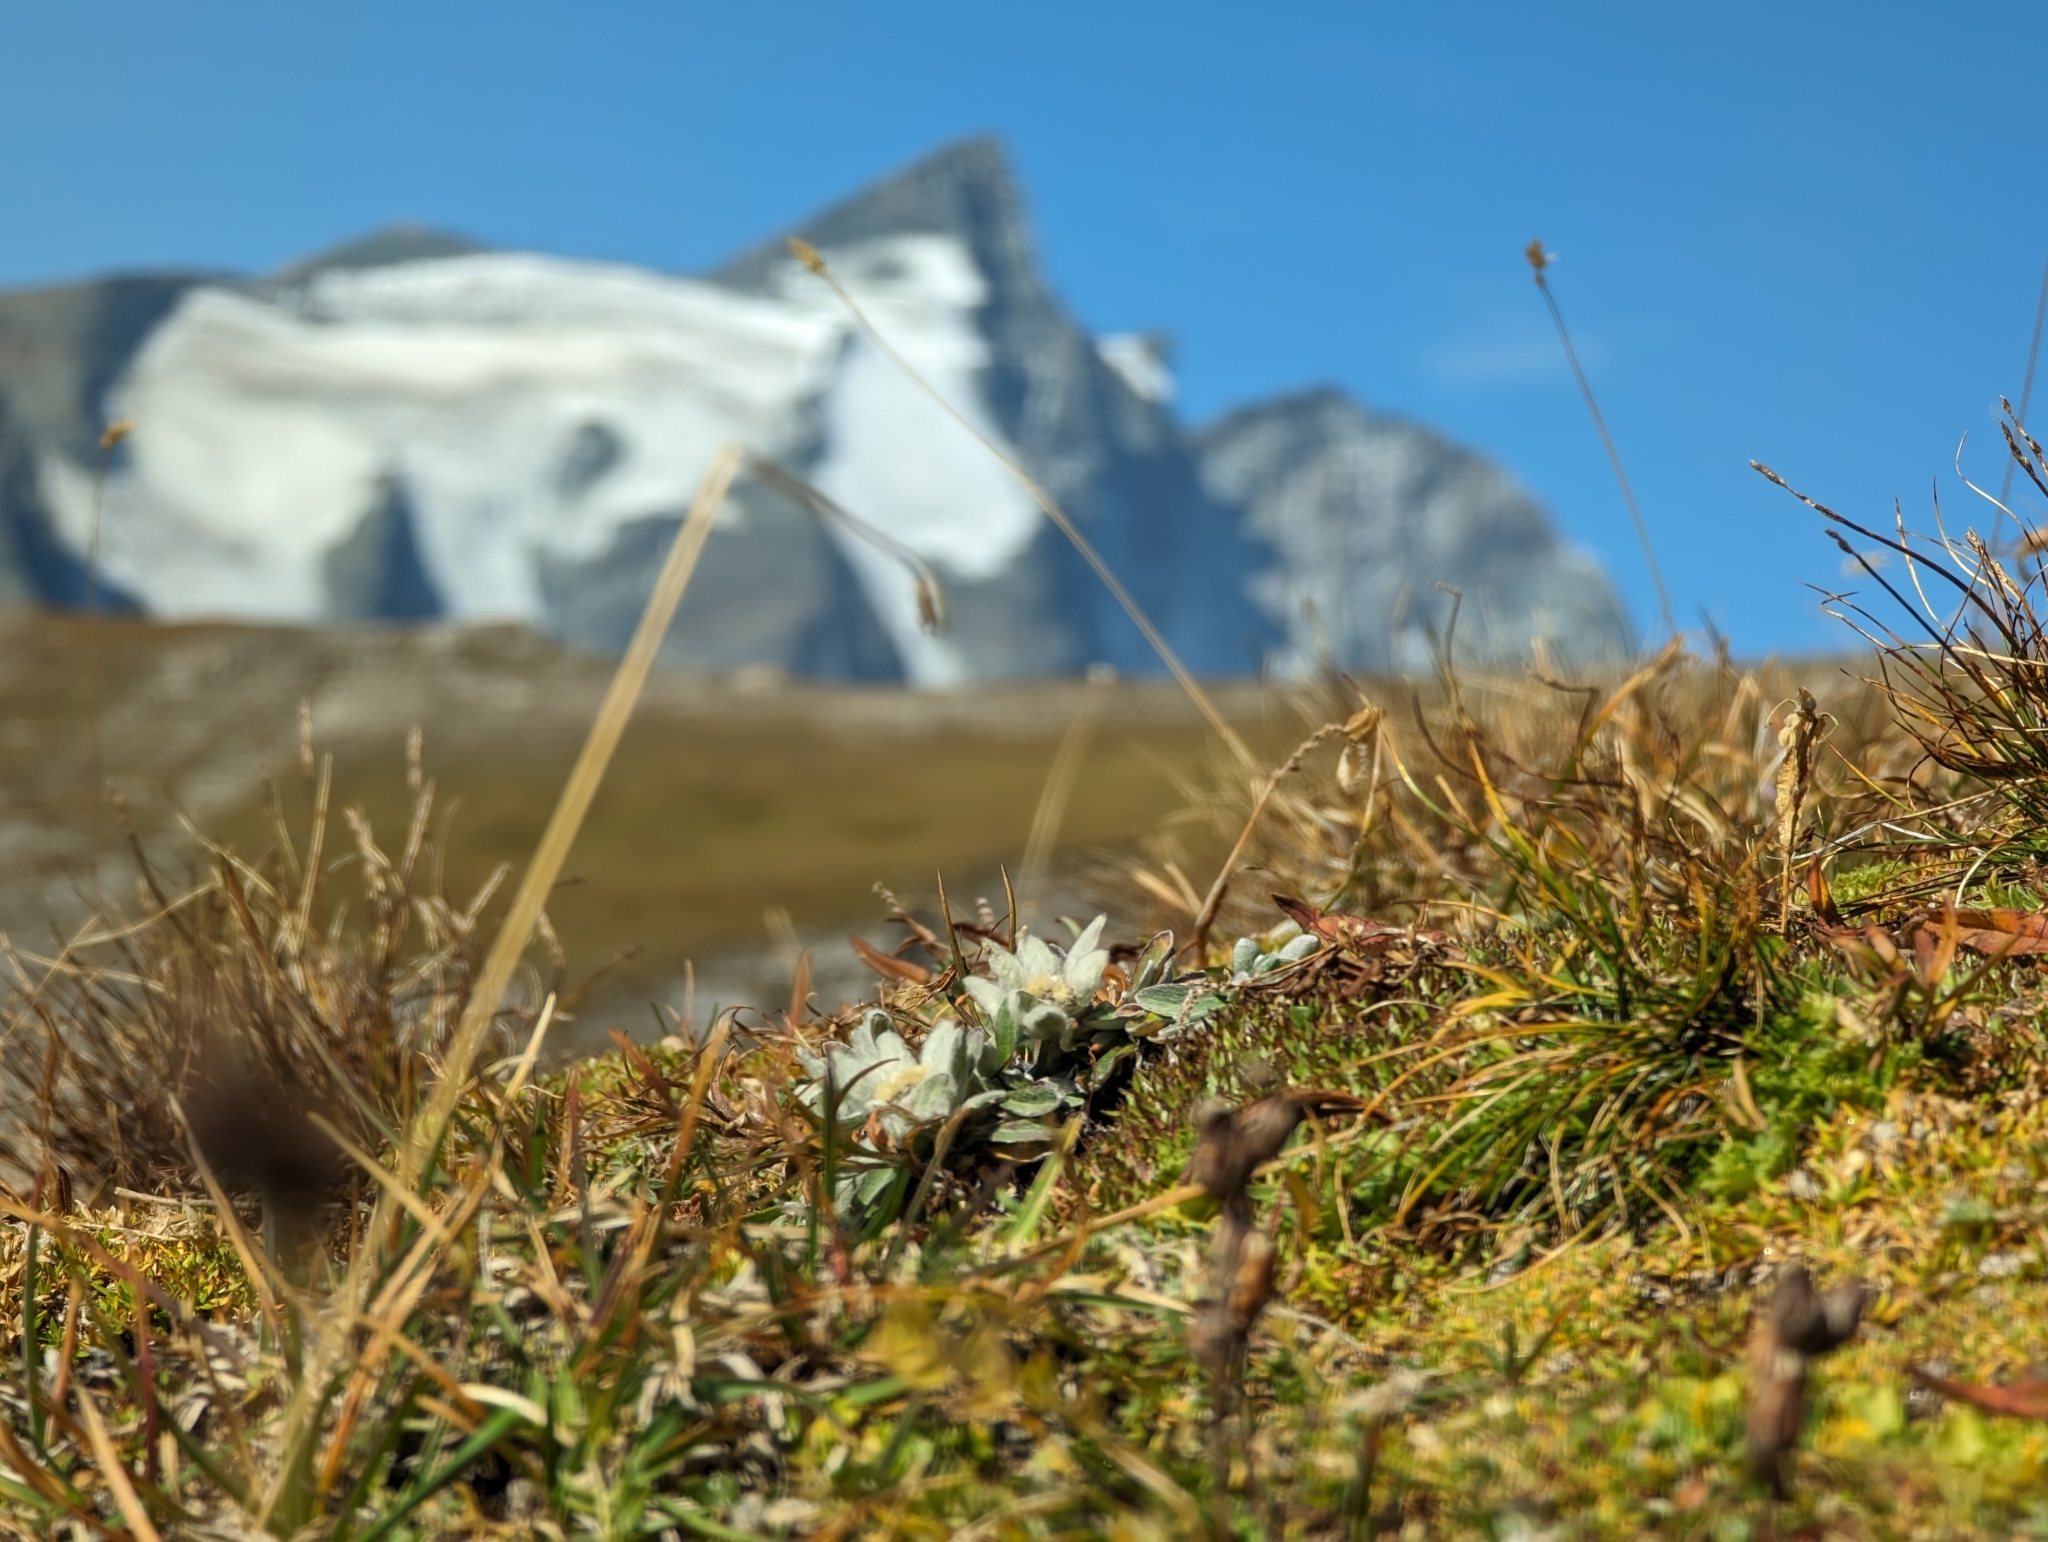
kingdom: Plantae
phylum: Tracheophyta
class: Magnoliopsida
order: Asterales
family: Asteraceae
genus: Leontopodium
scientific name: Leontopodium nivale
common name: Edelweiss
